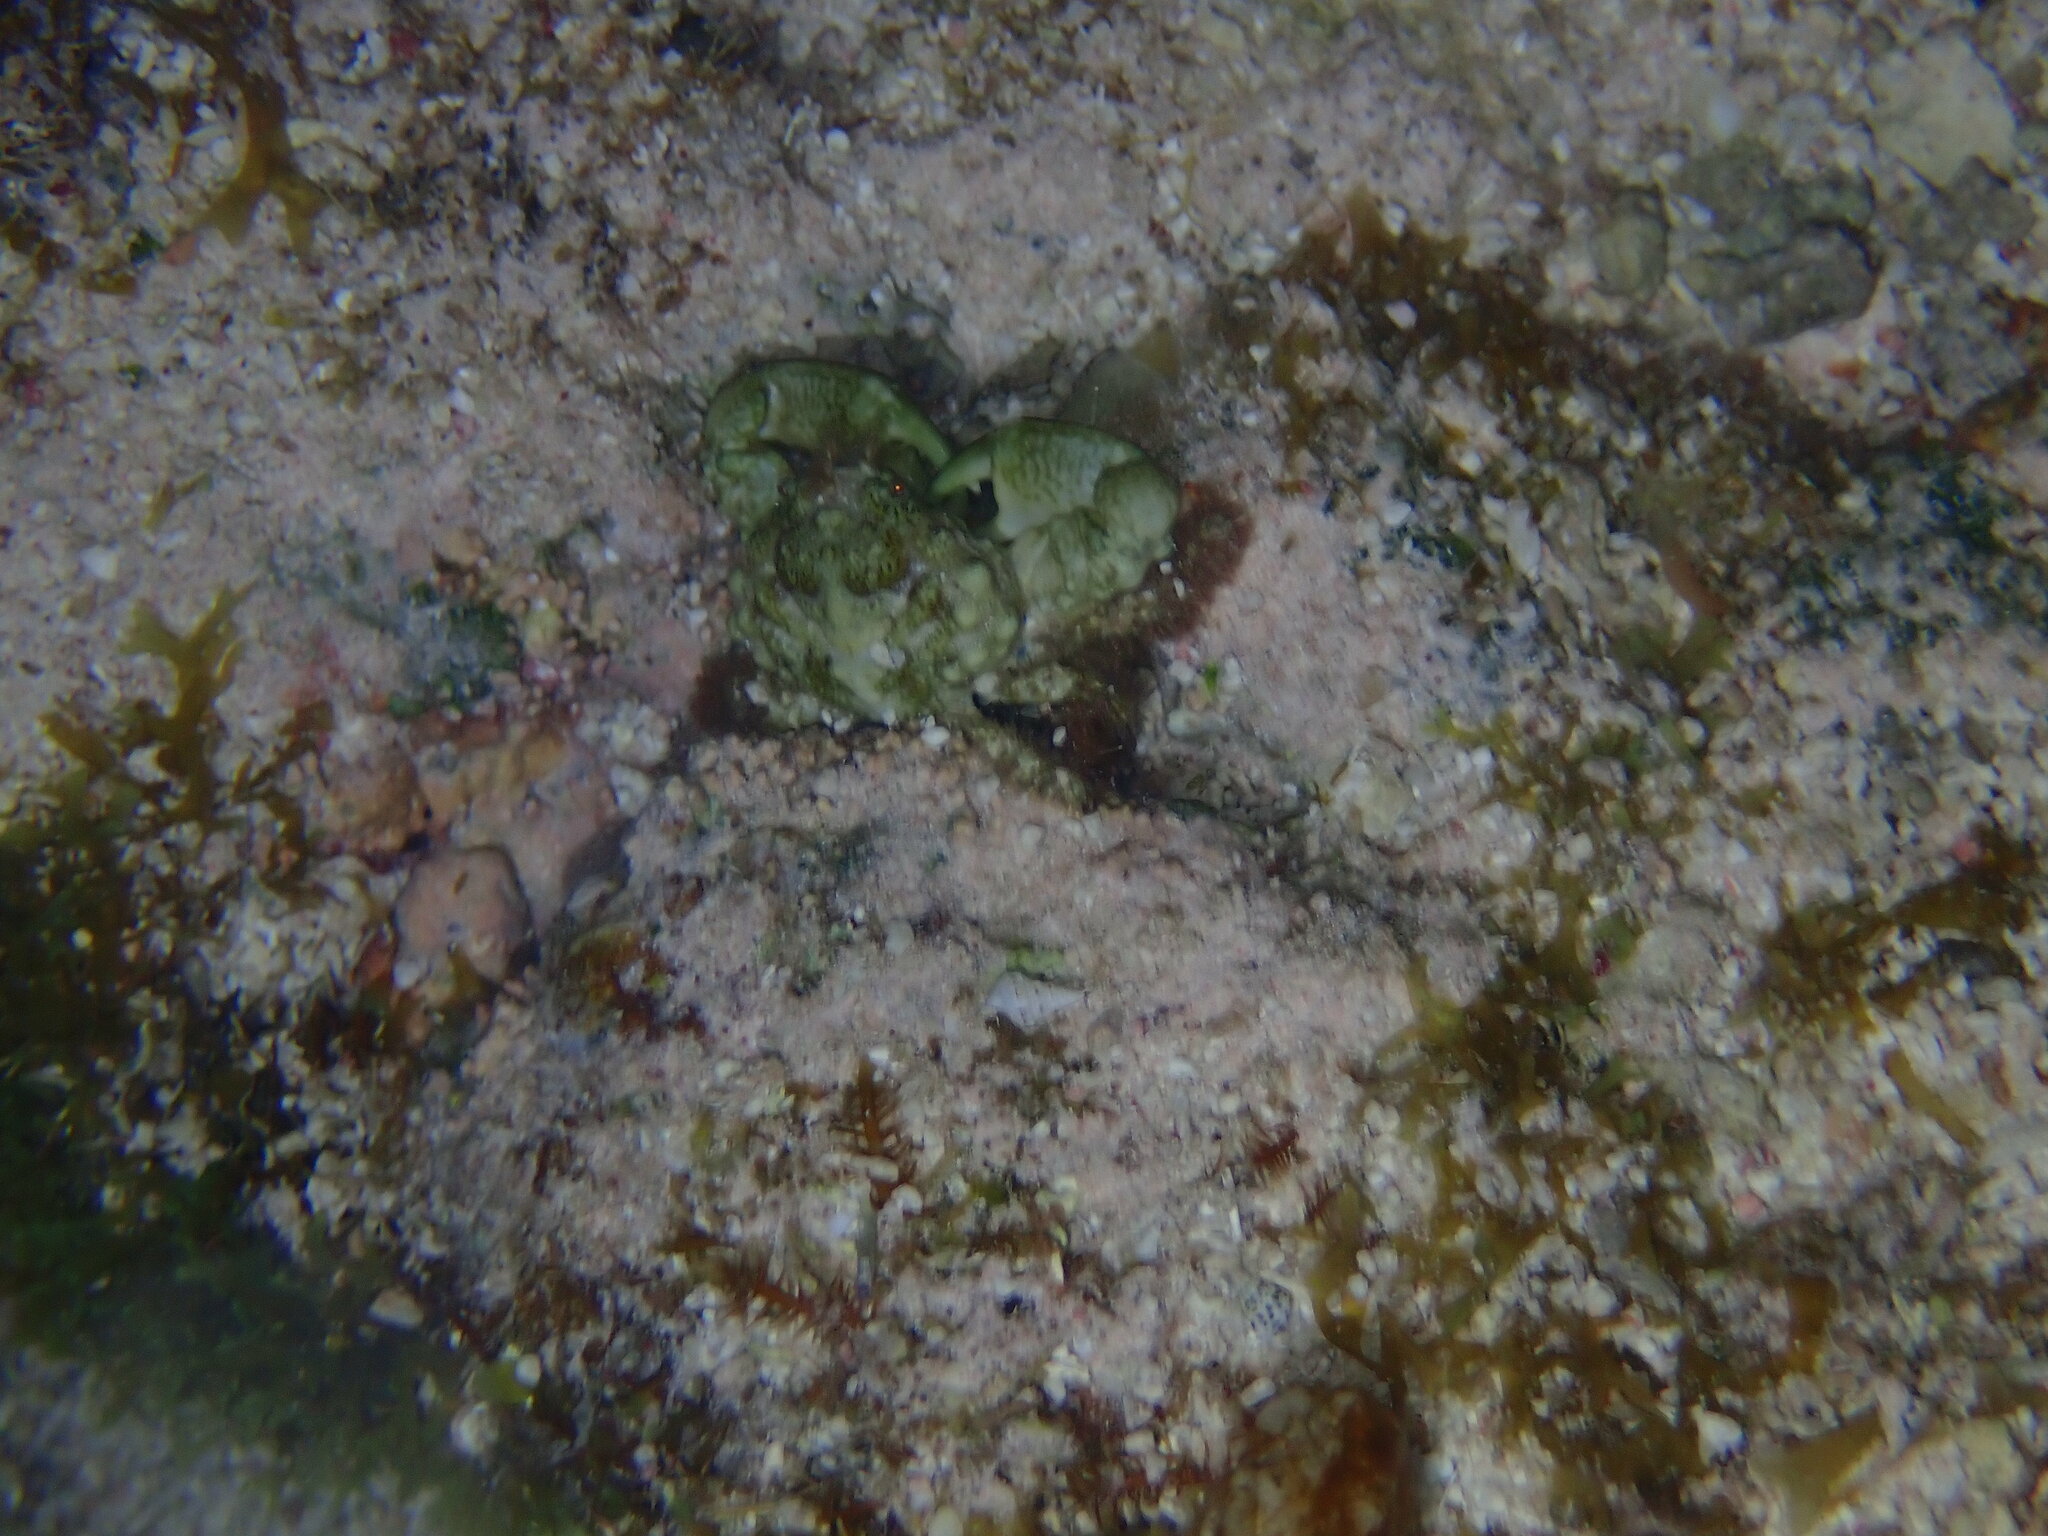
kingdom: Animalia
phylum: Arthropoda
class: Malacostraca
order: Decapoda
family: Mithracidae
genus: Mithraculus
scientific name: Mithraculus coryphe
